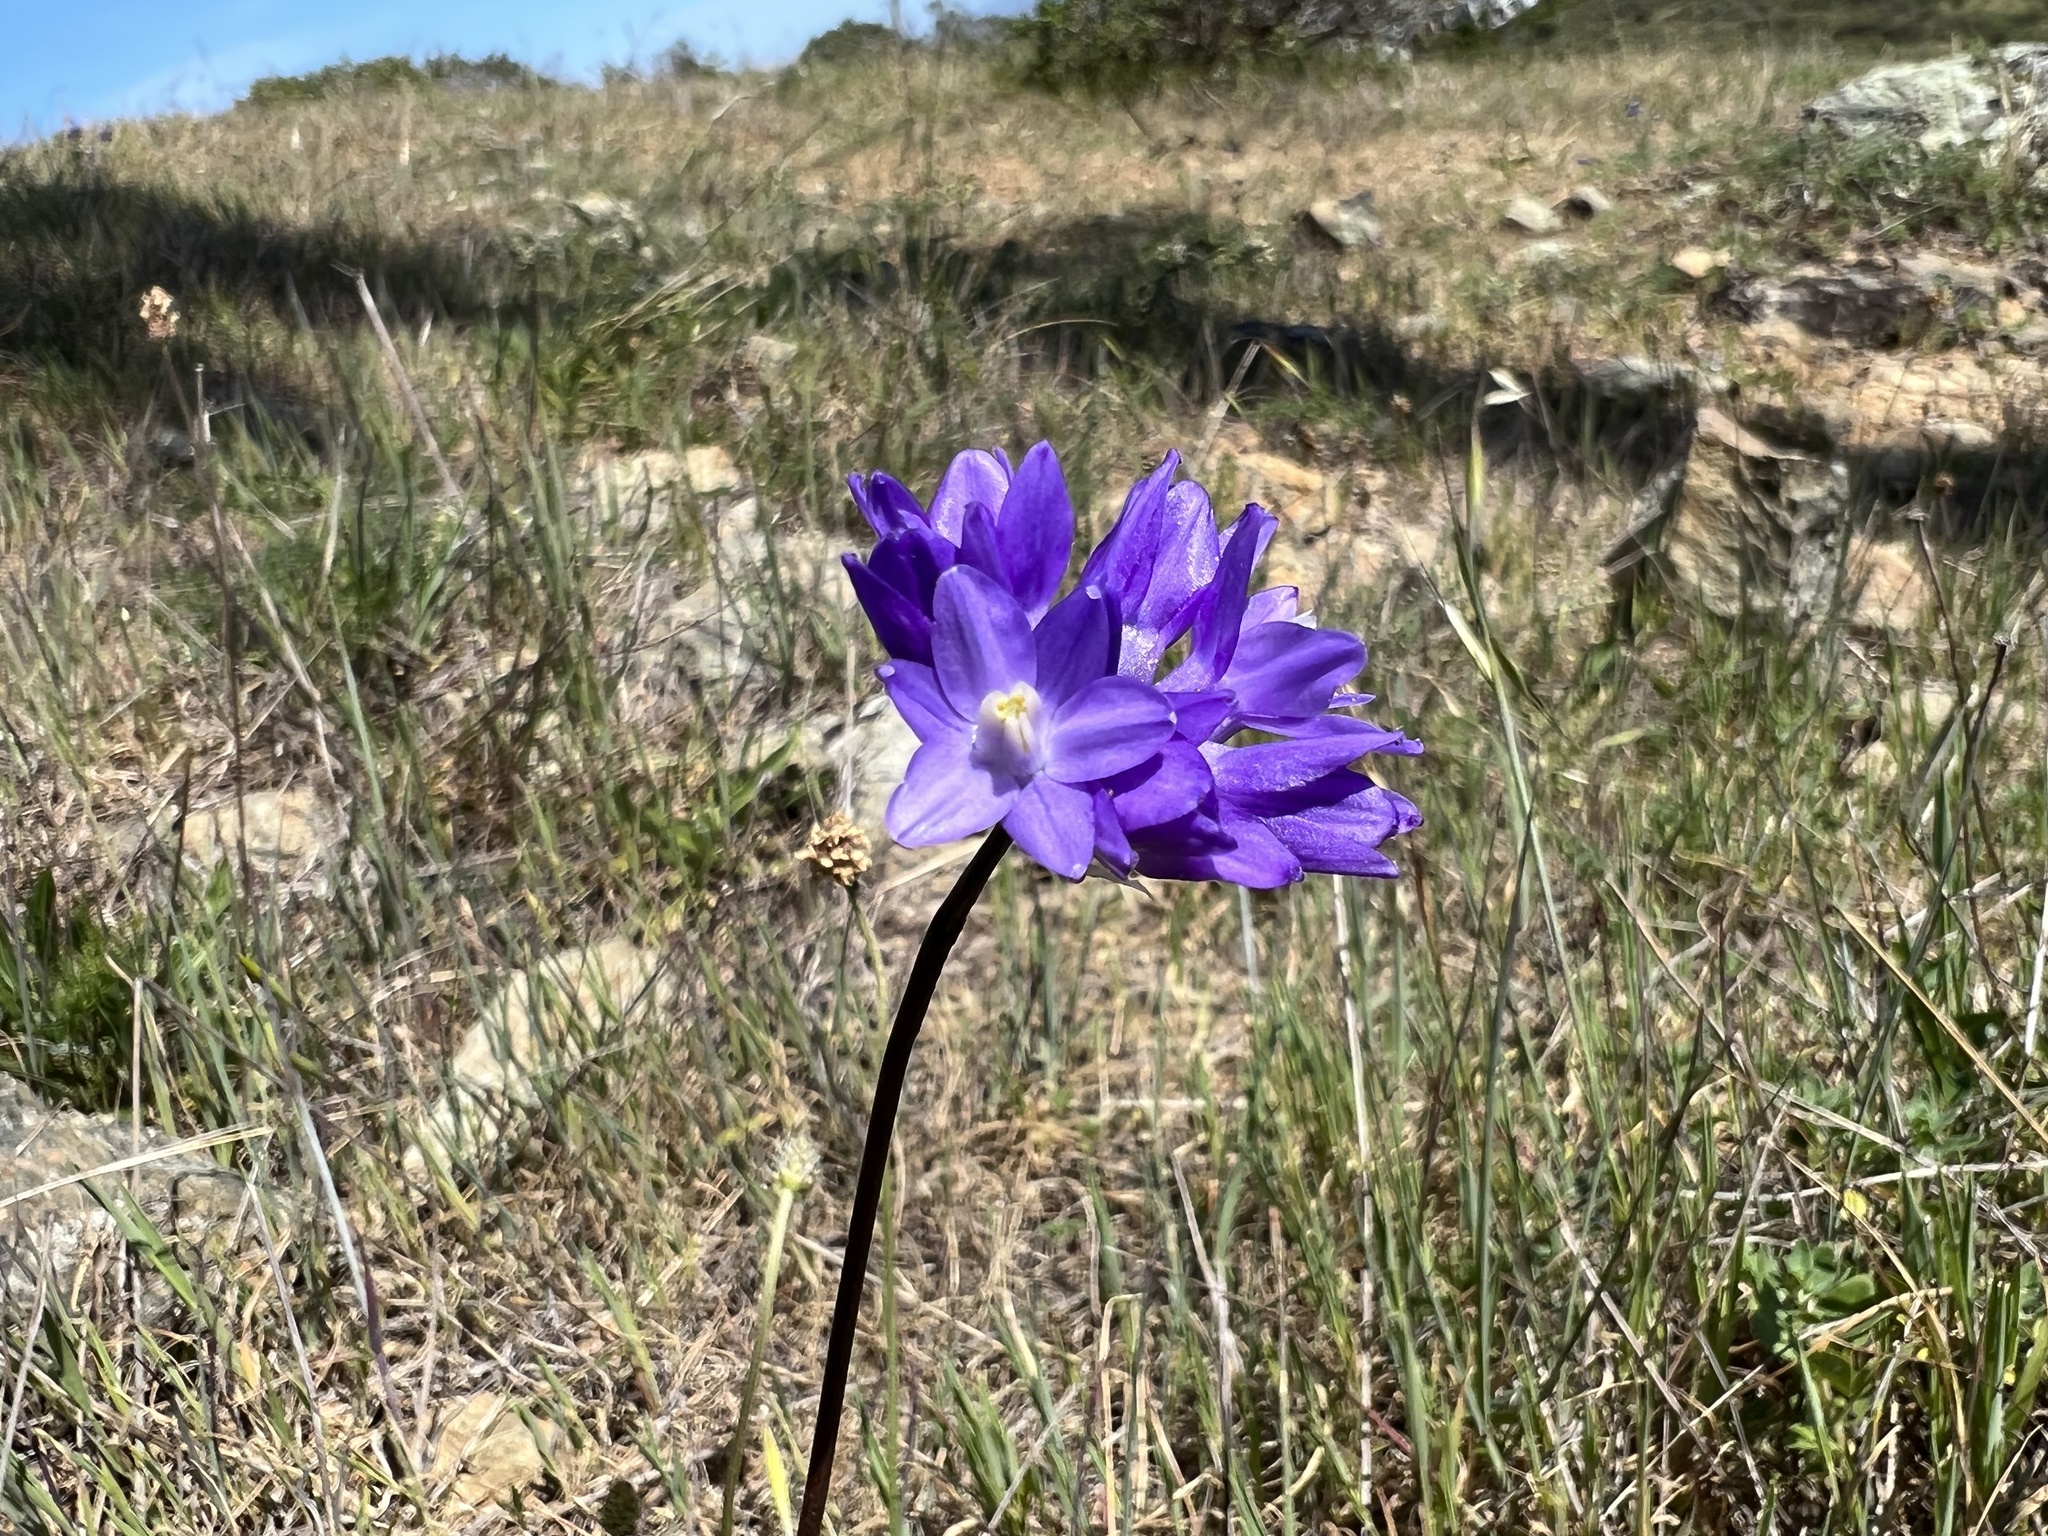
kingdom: Plantae
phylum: Tracheophyta
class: Liliopsida
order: Asparagales
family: Asparagaceae
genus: Dipterostemon
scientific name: Dipterostemon capitatus
